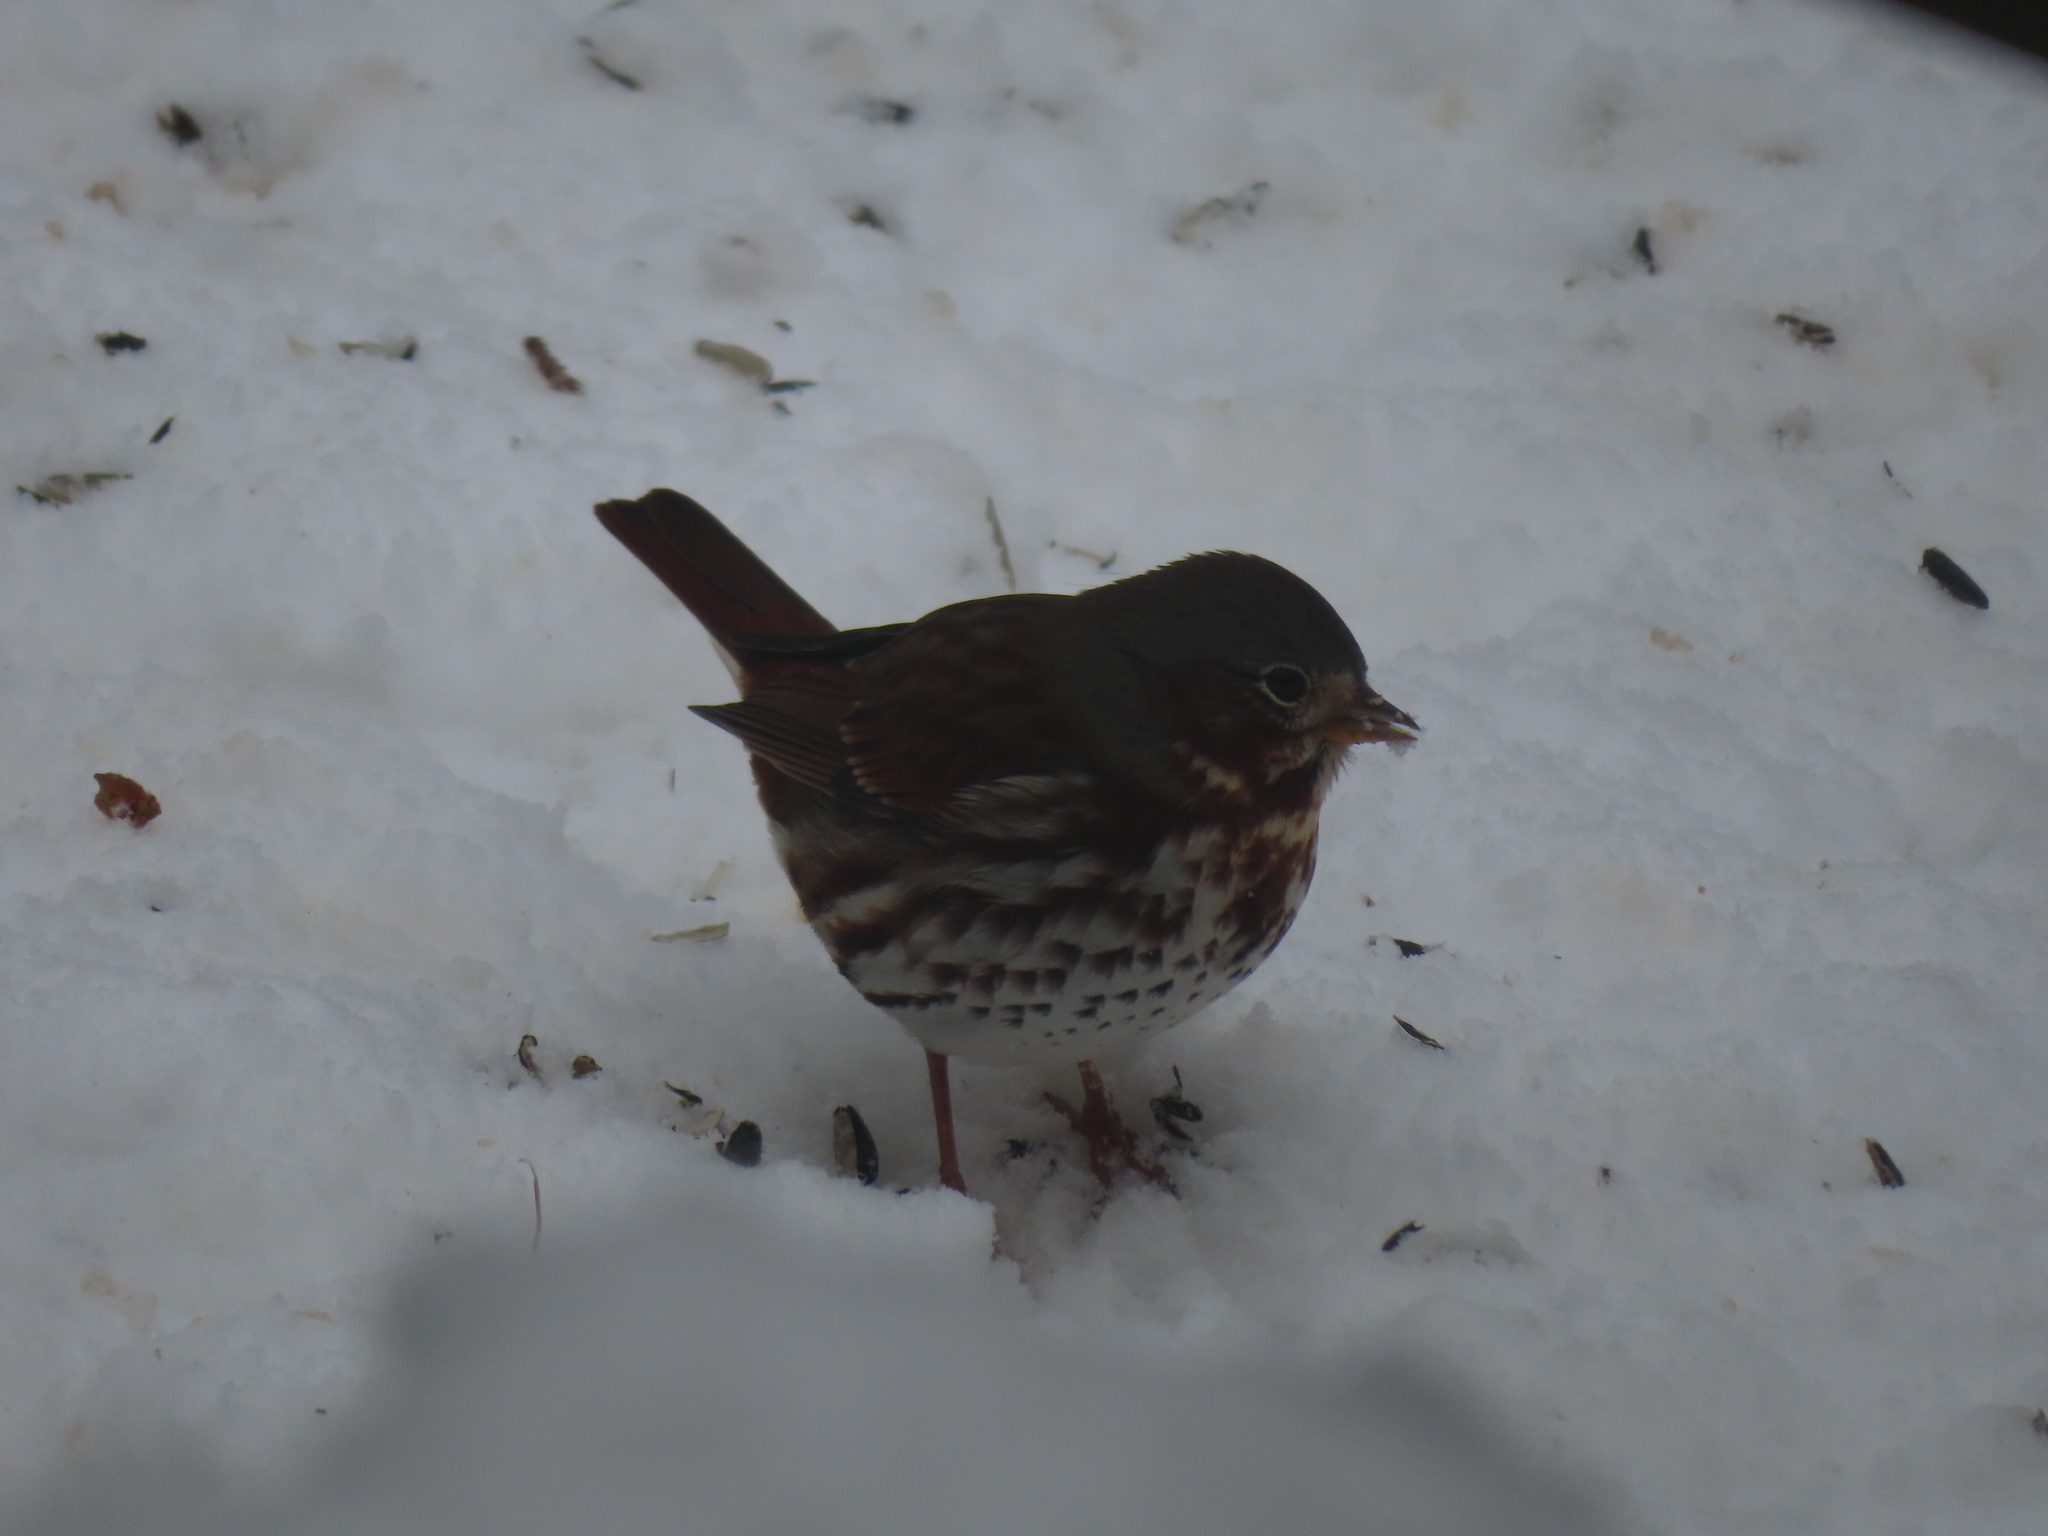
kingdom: Animalia
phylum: Chordata
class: Aves
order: Passeriformes
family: Passerellidae
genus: Passerella
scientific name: Passerella iliaca
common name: Fox sparrow
